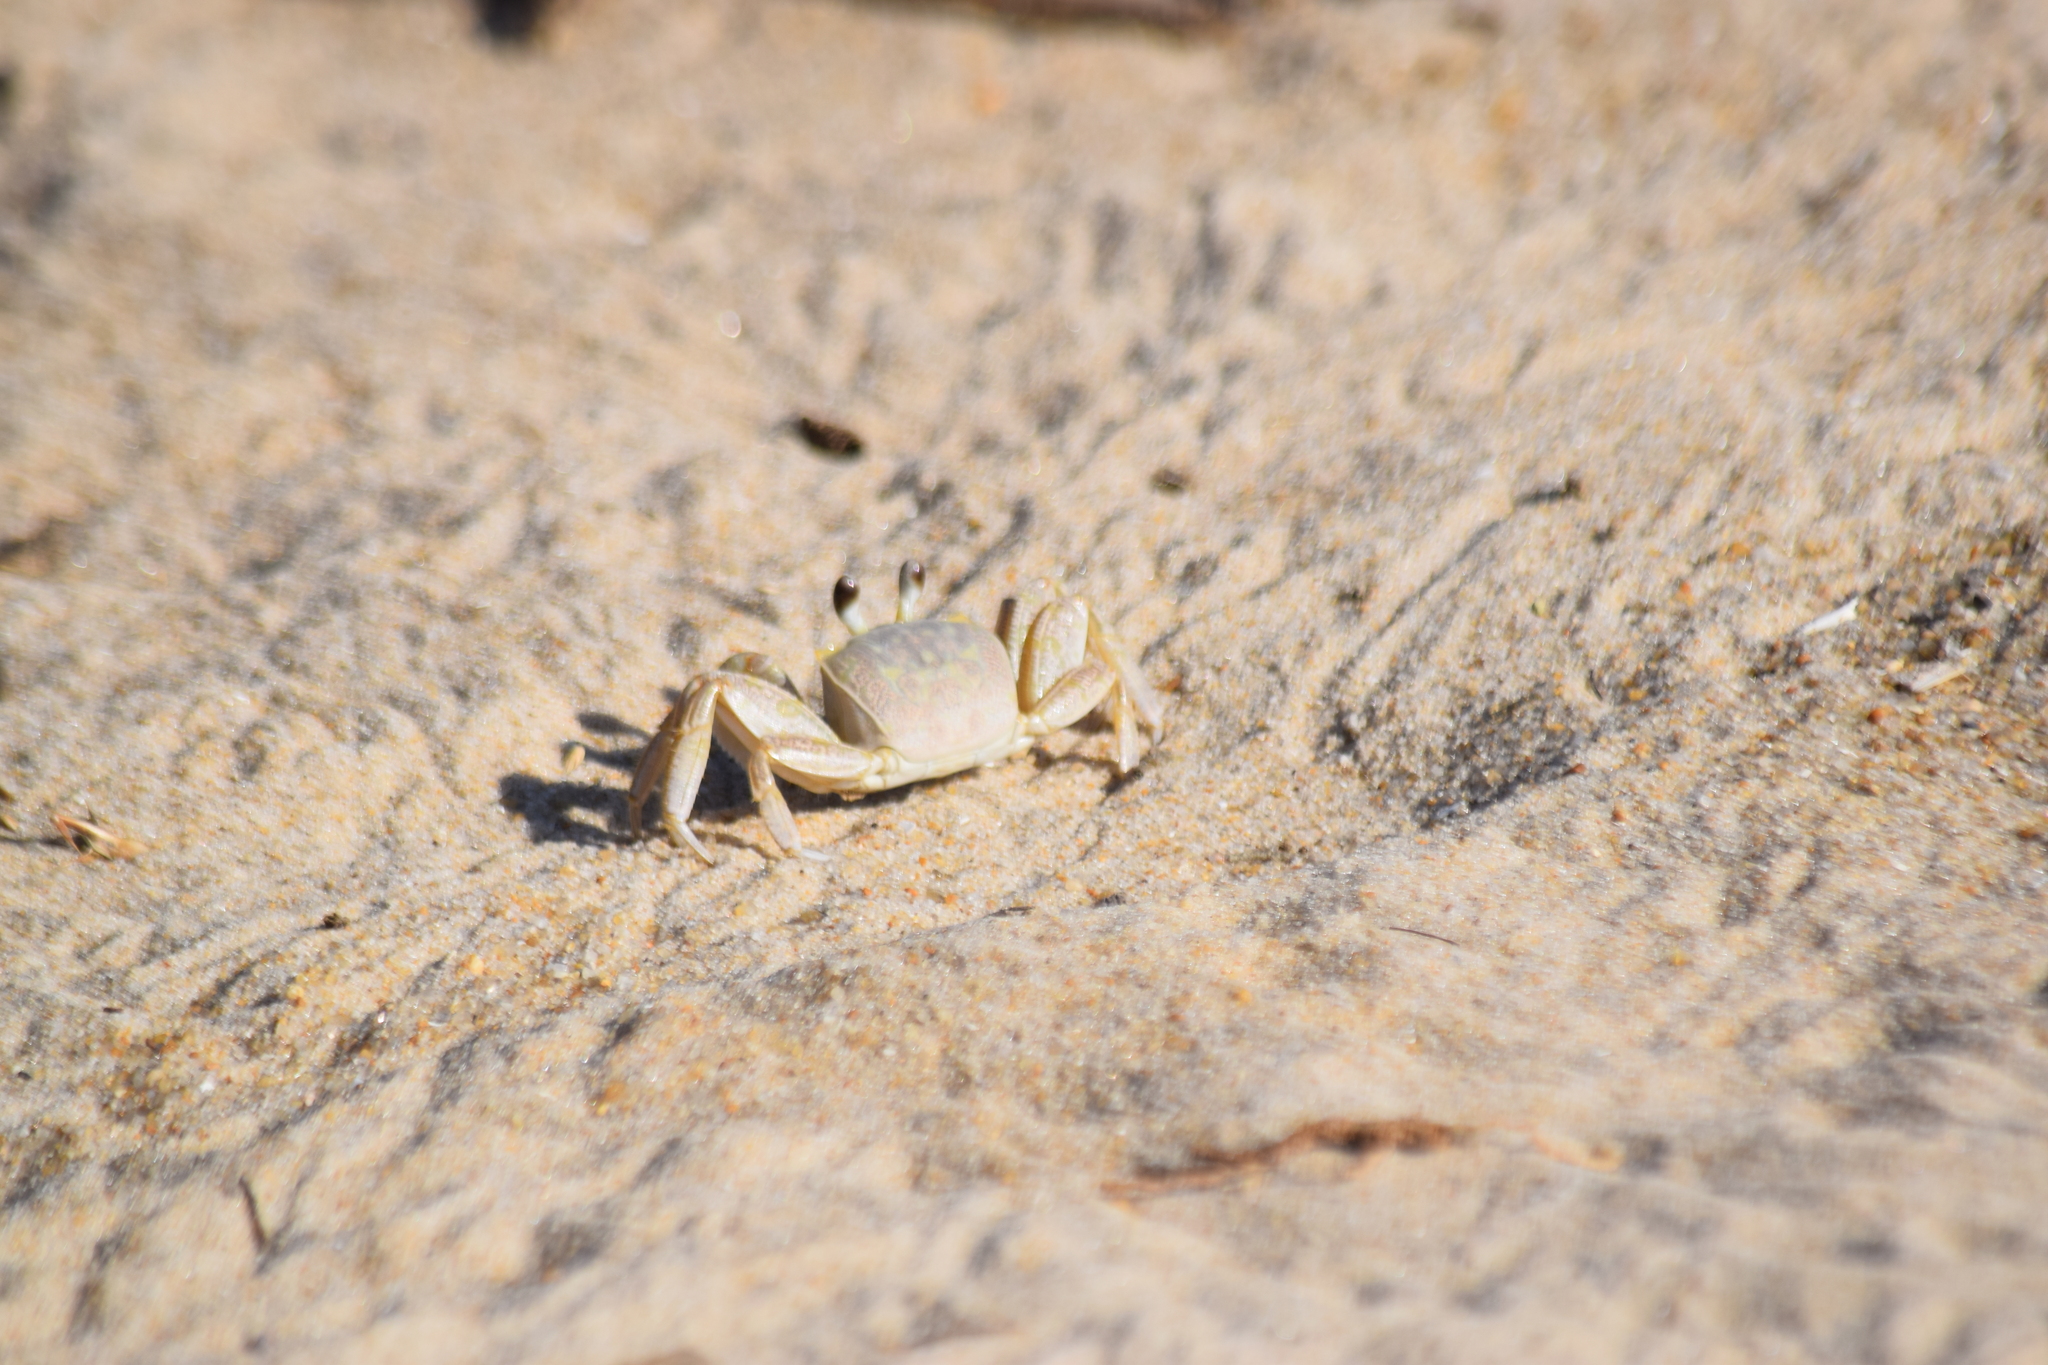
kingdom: Animalia
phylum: Arthropoda
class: Malacostraca
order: Decapoda
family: Ocypodidae
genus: Ocypode
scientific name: Ocypode quadrata
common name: Ghost crab
